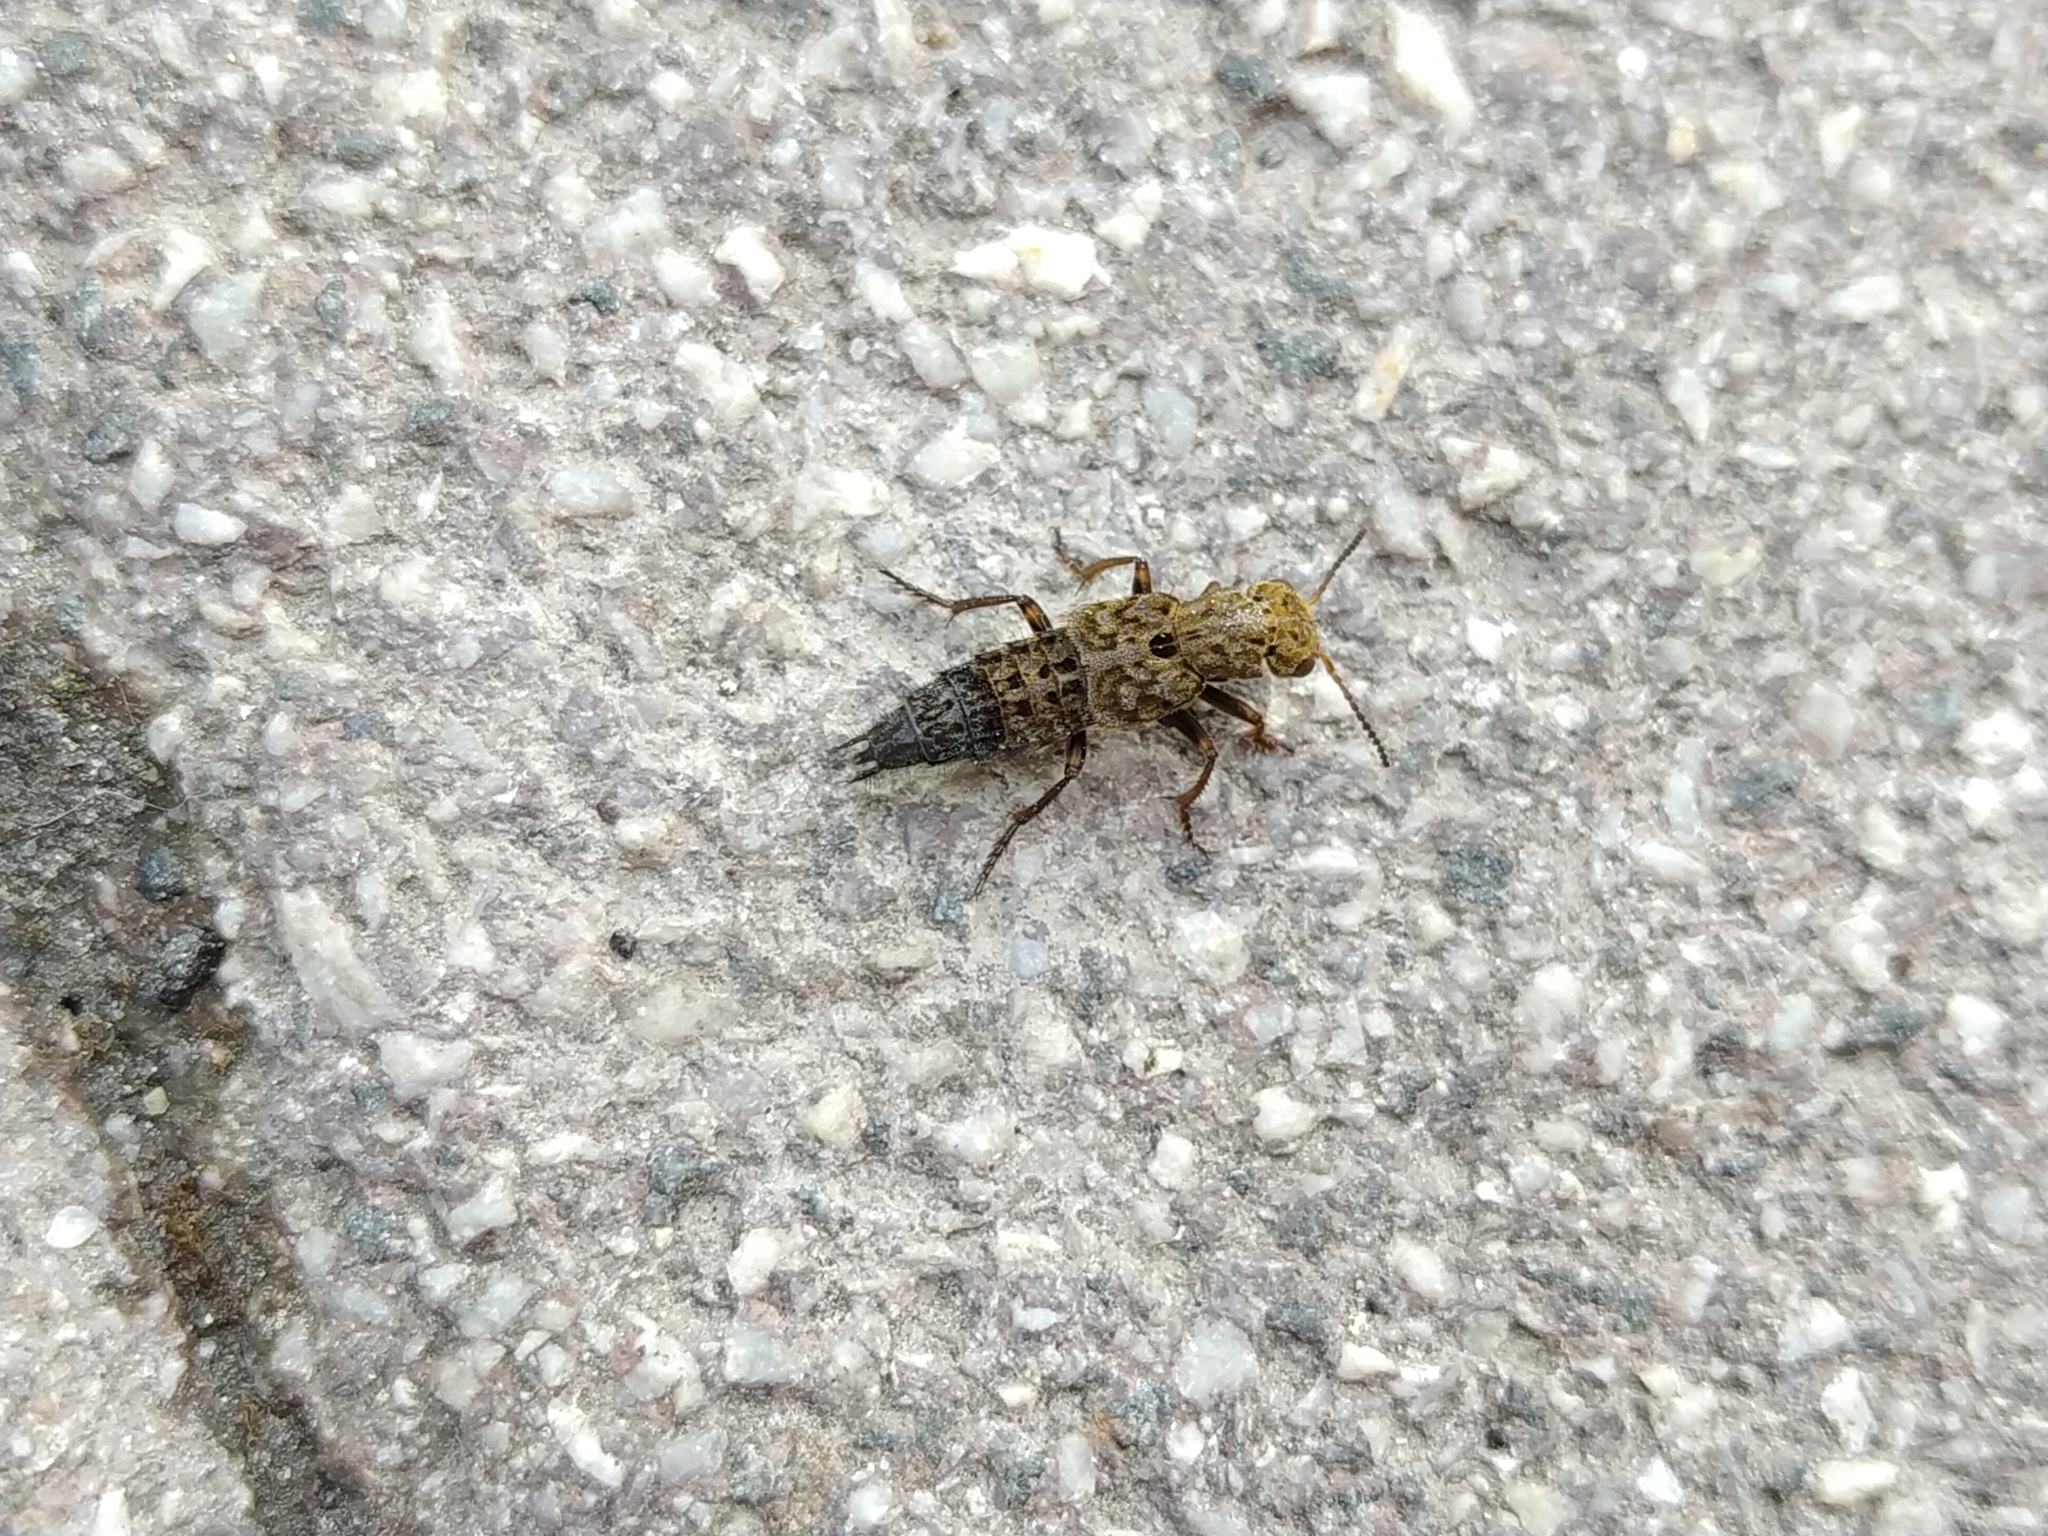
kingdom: Animalia
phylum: Arthropoda
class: Insecta
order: Coleoptera
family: Staphylinidae
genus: Ontholestes
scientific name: Ontholestes tessellatus
